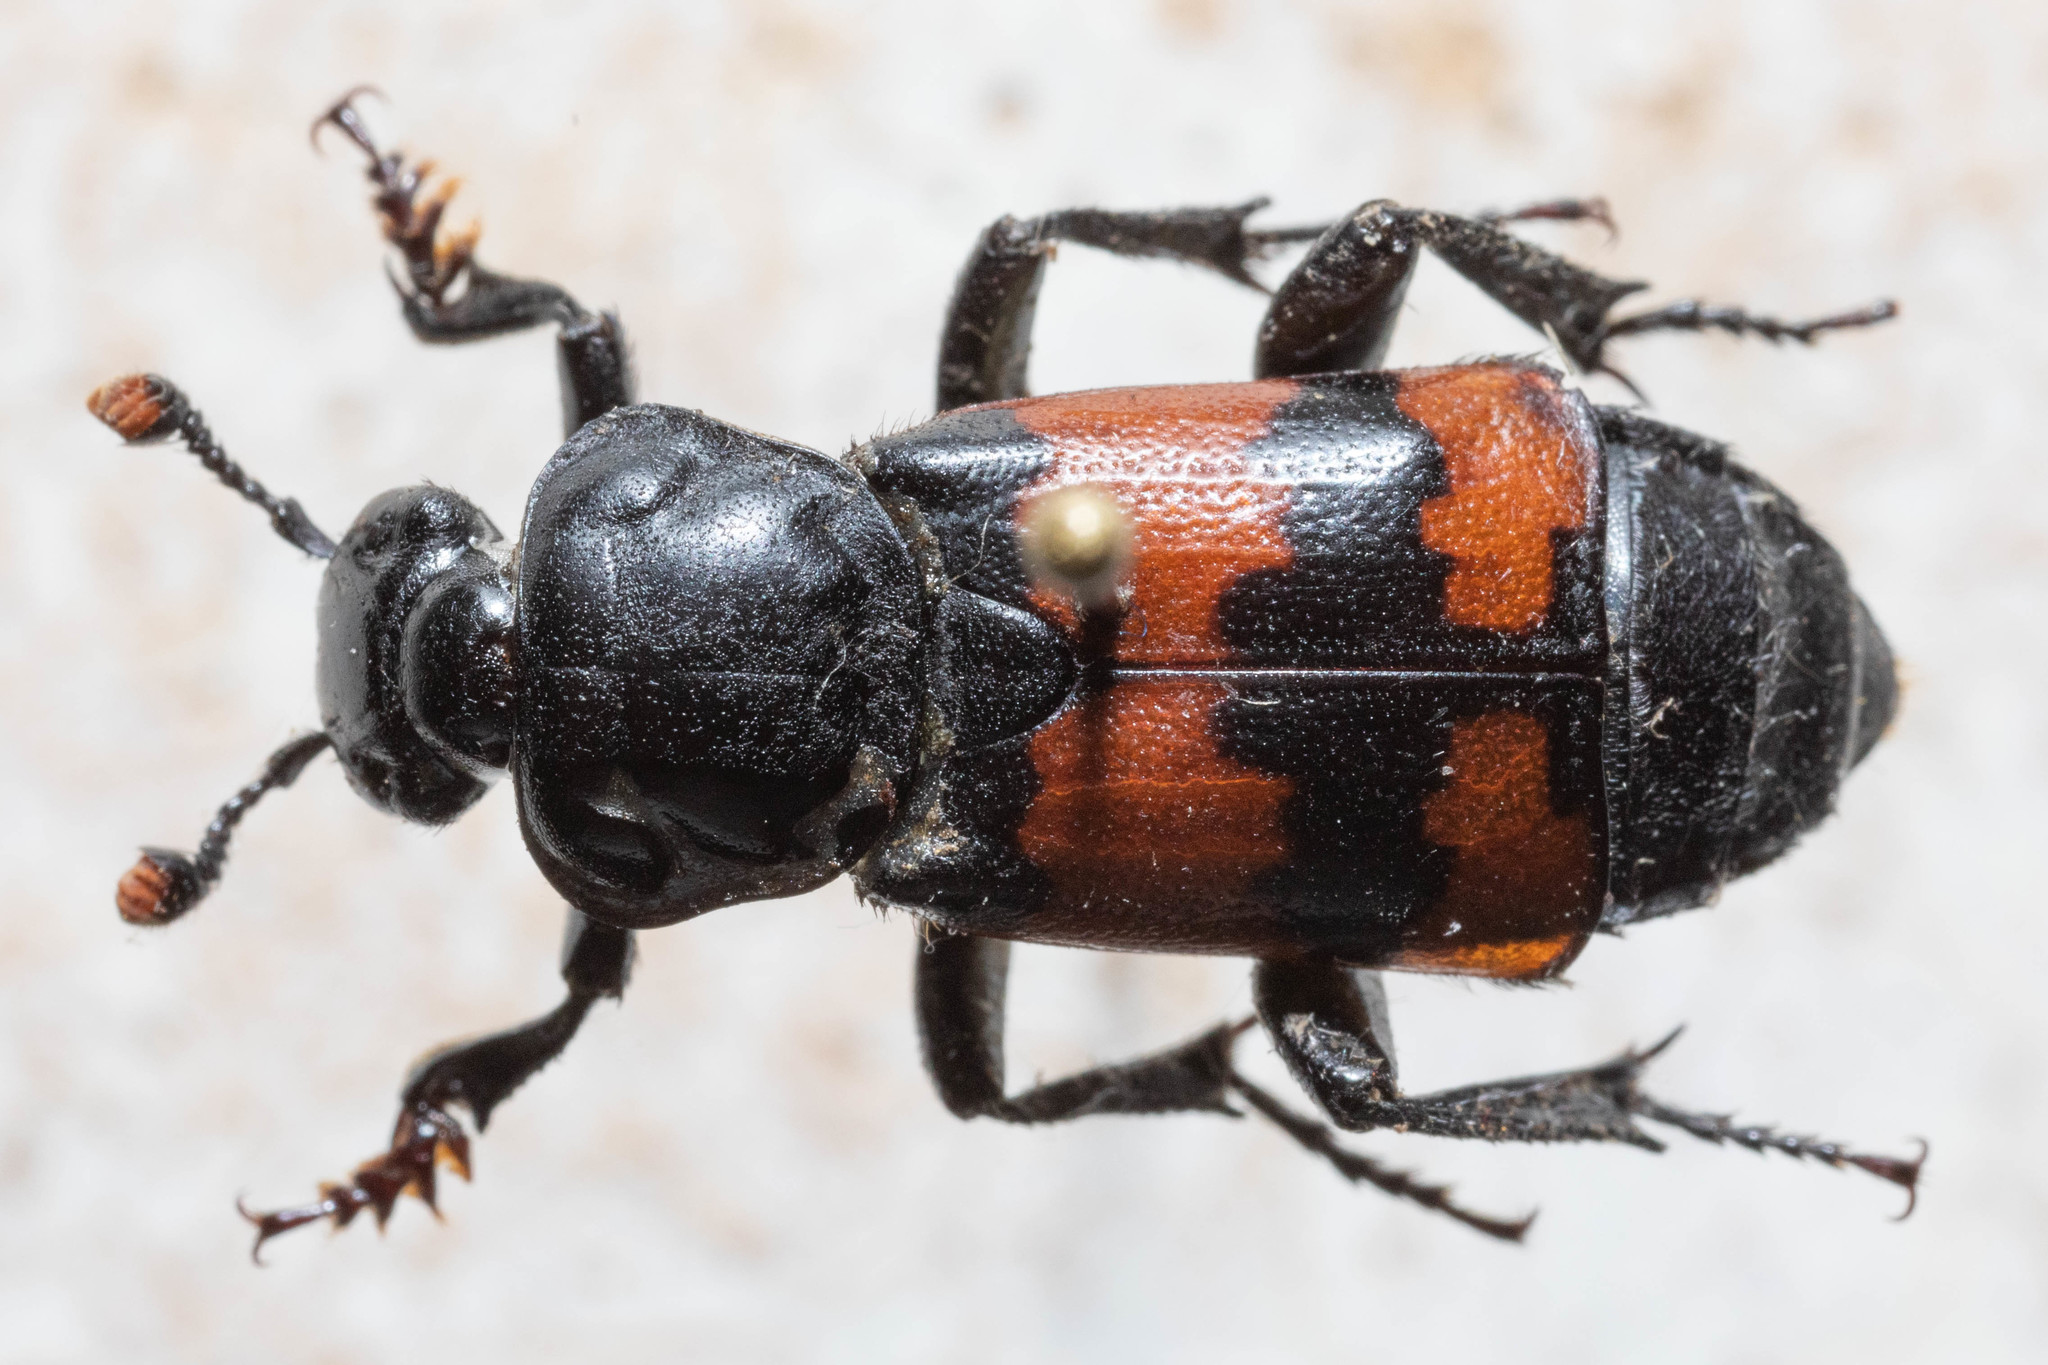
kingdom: Animalia
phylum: Arthropoda
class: Insecta
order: Coleoptera
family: Staphylinidae
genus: Nicrophorus
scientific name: Nicrophorus hybridus
